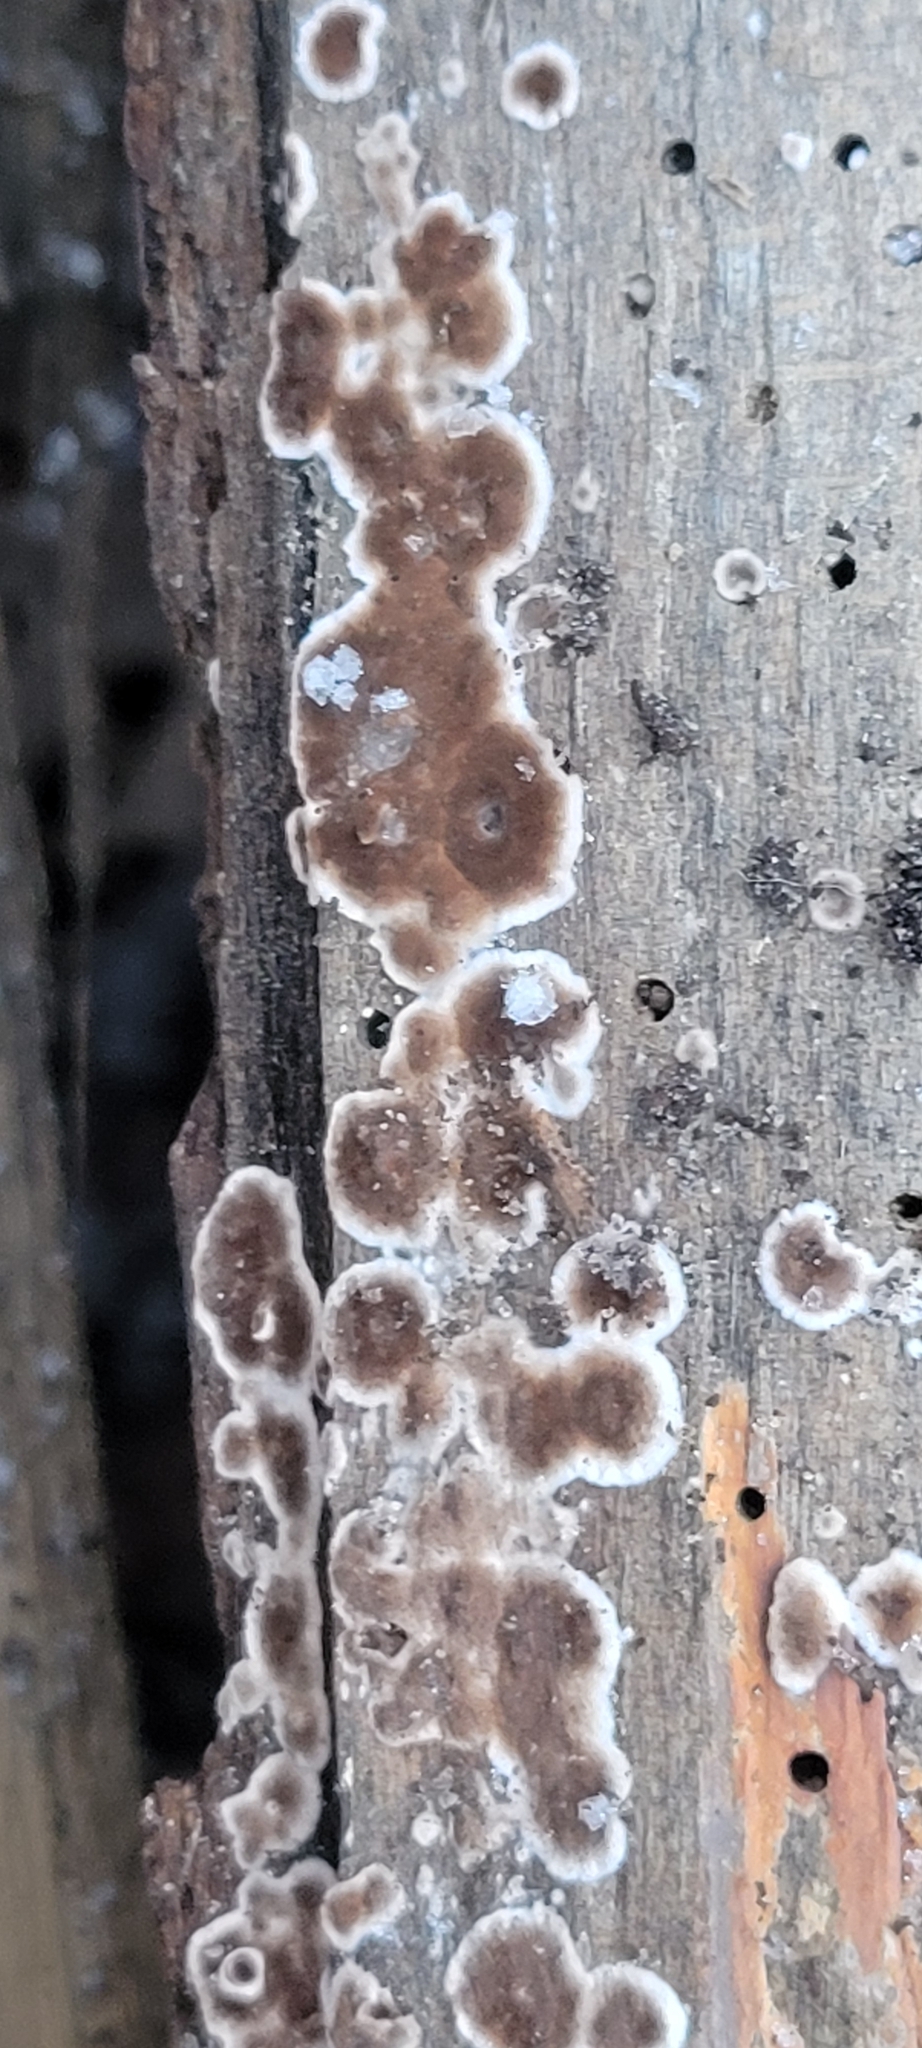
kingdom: Fungi
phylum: Basidiomycota
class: Agaricomycetes
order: Russulales
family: Peniophoraceae
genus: Peniophora
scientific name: Peniophora albobadia
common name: Giraffe spots
